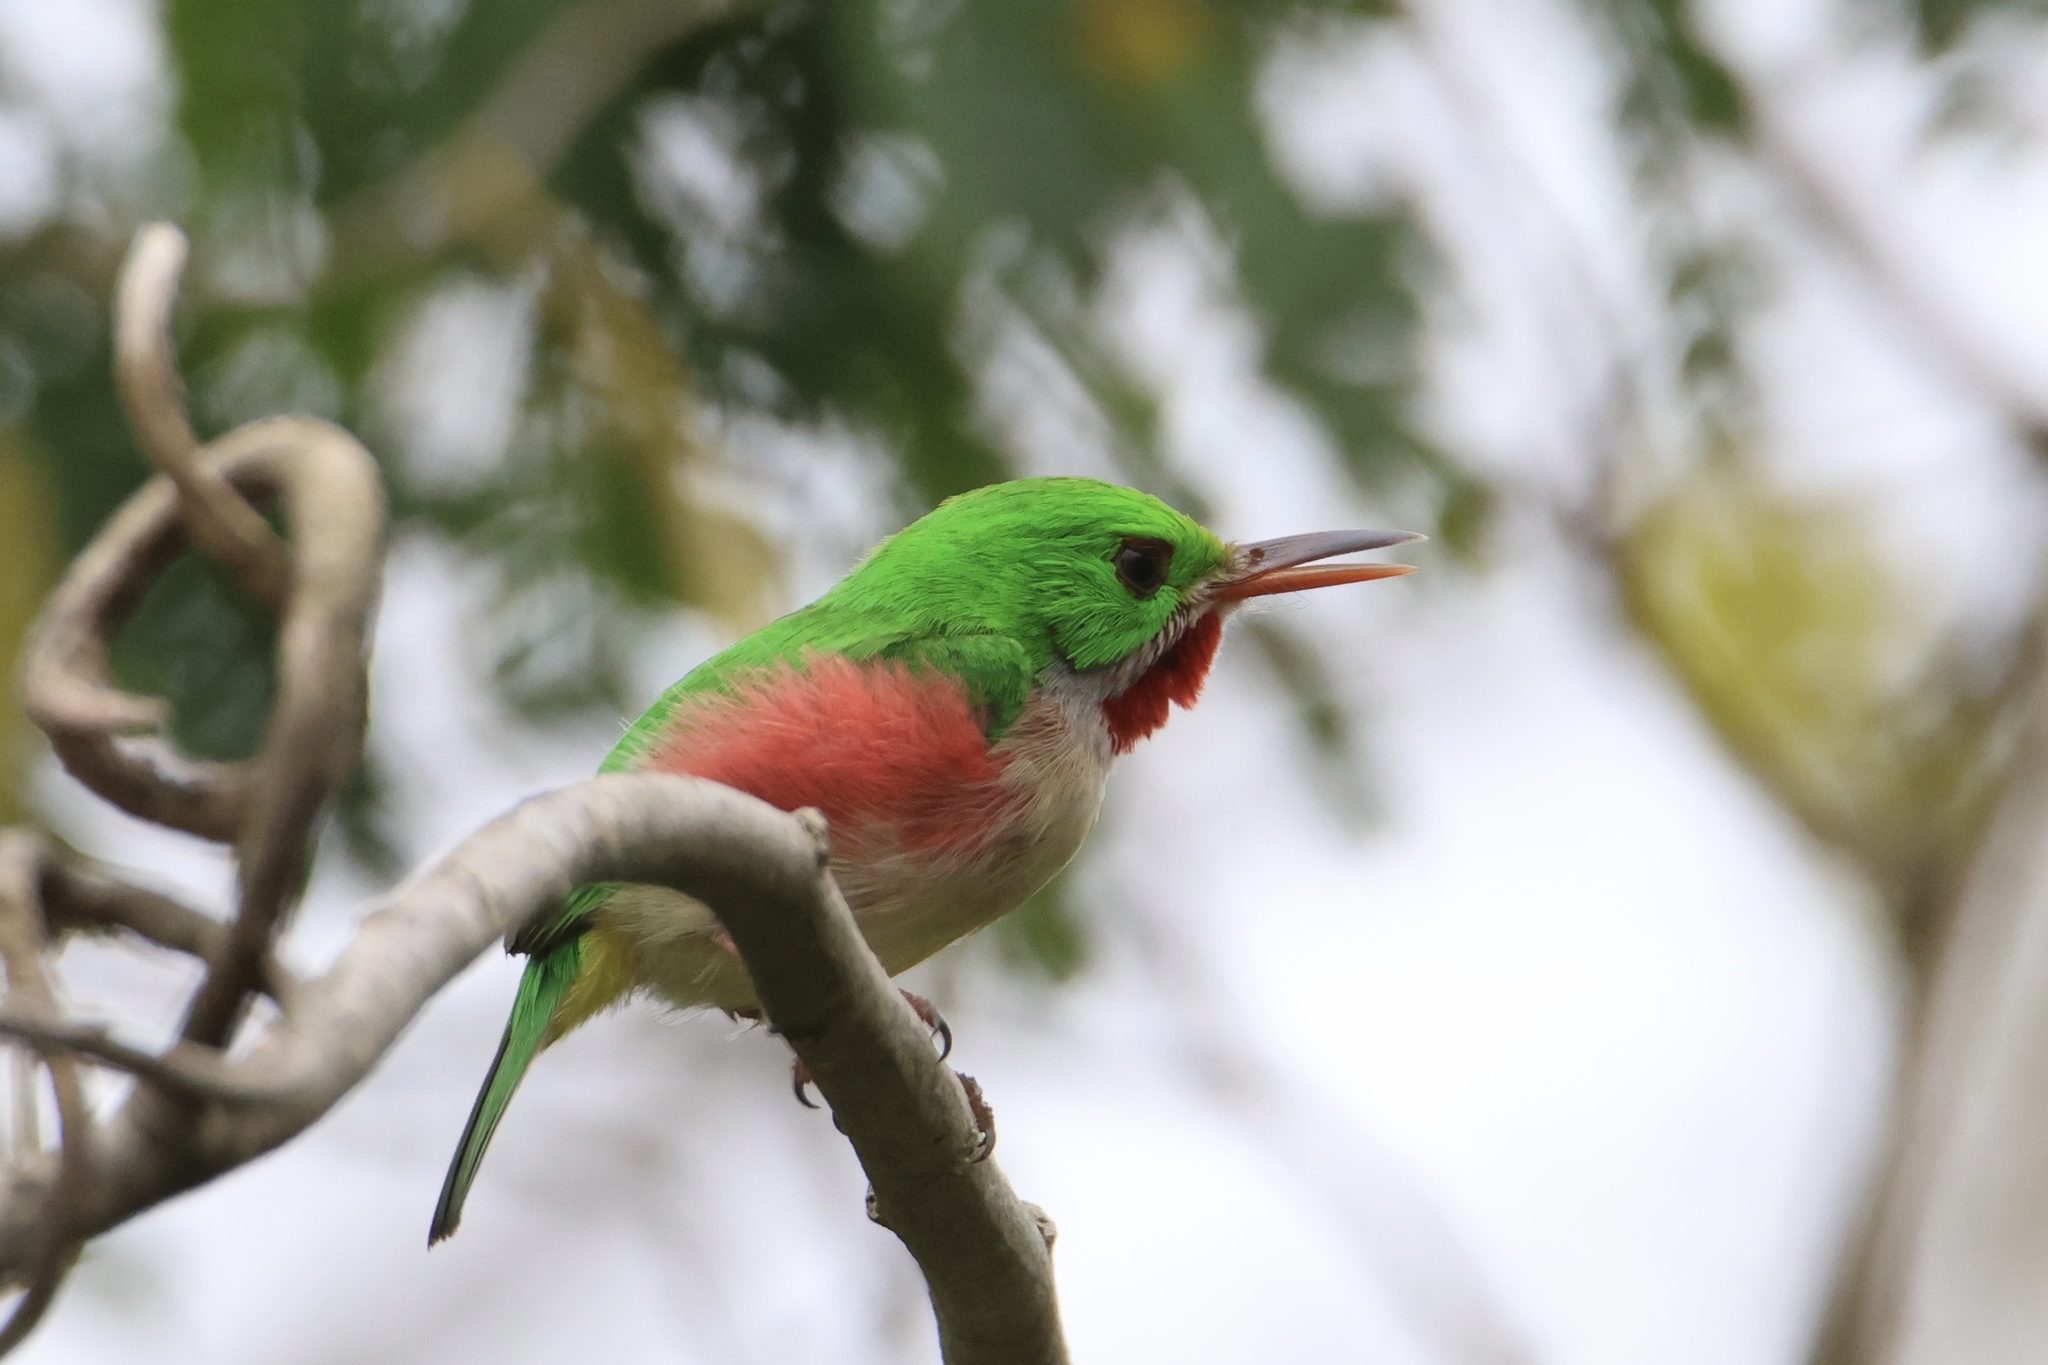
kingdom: Animalia
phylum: Chordata
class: Aves
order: Coraciiformes
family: Todidae
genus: Todus
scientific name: Todus subulatus
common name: Broad-billed tody
